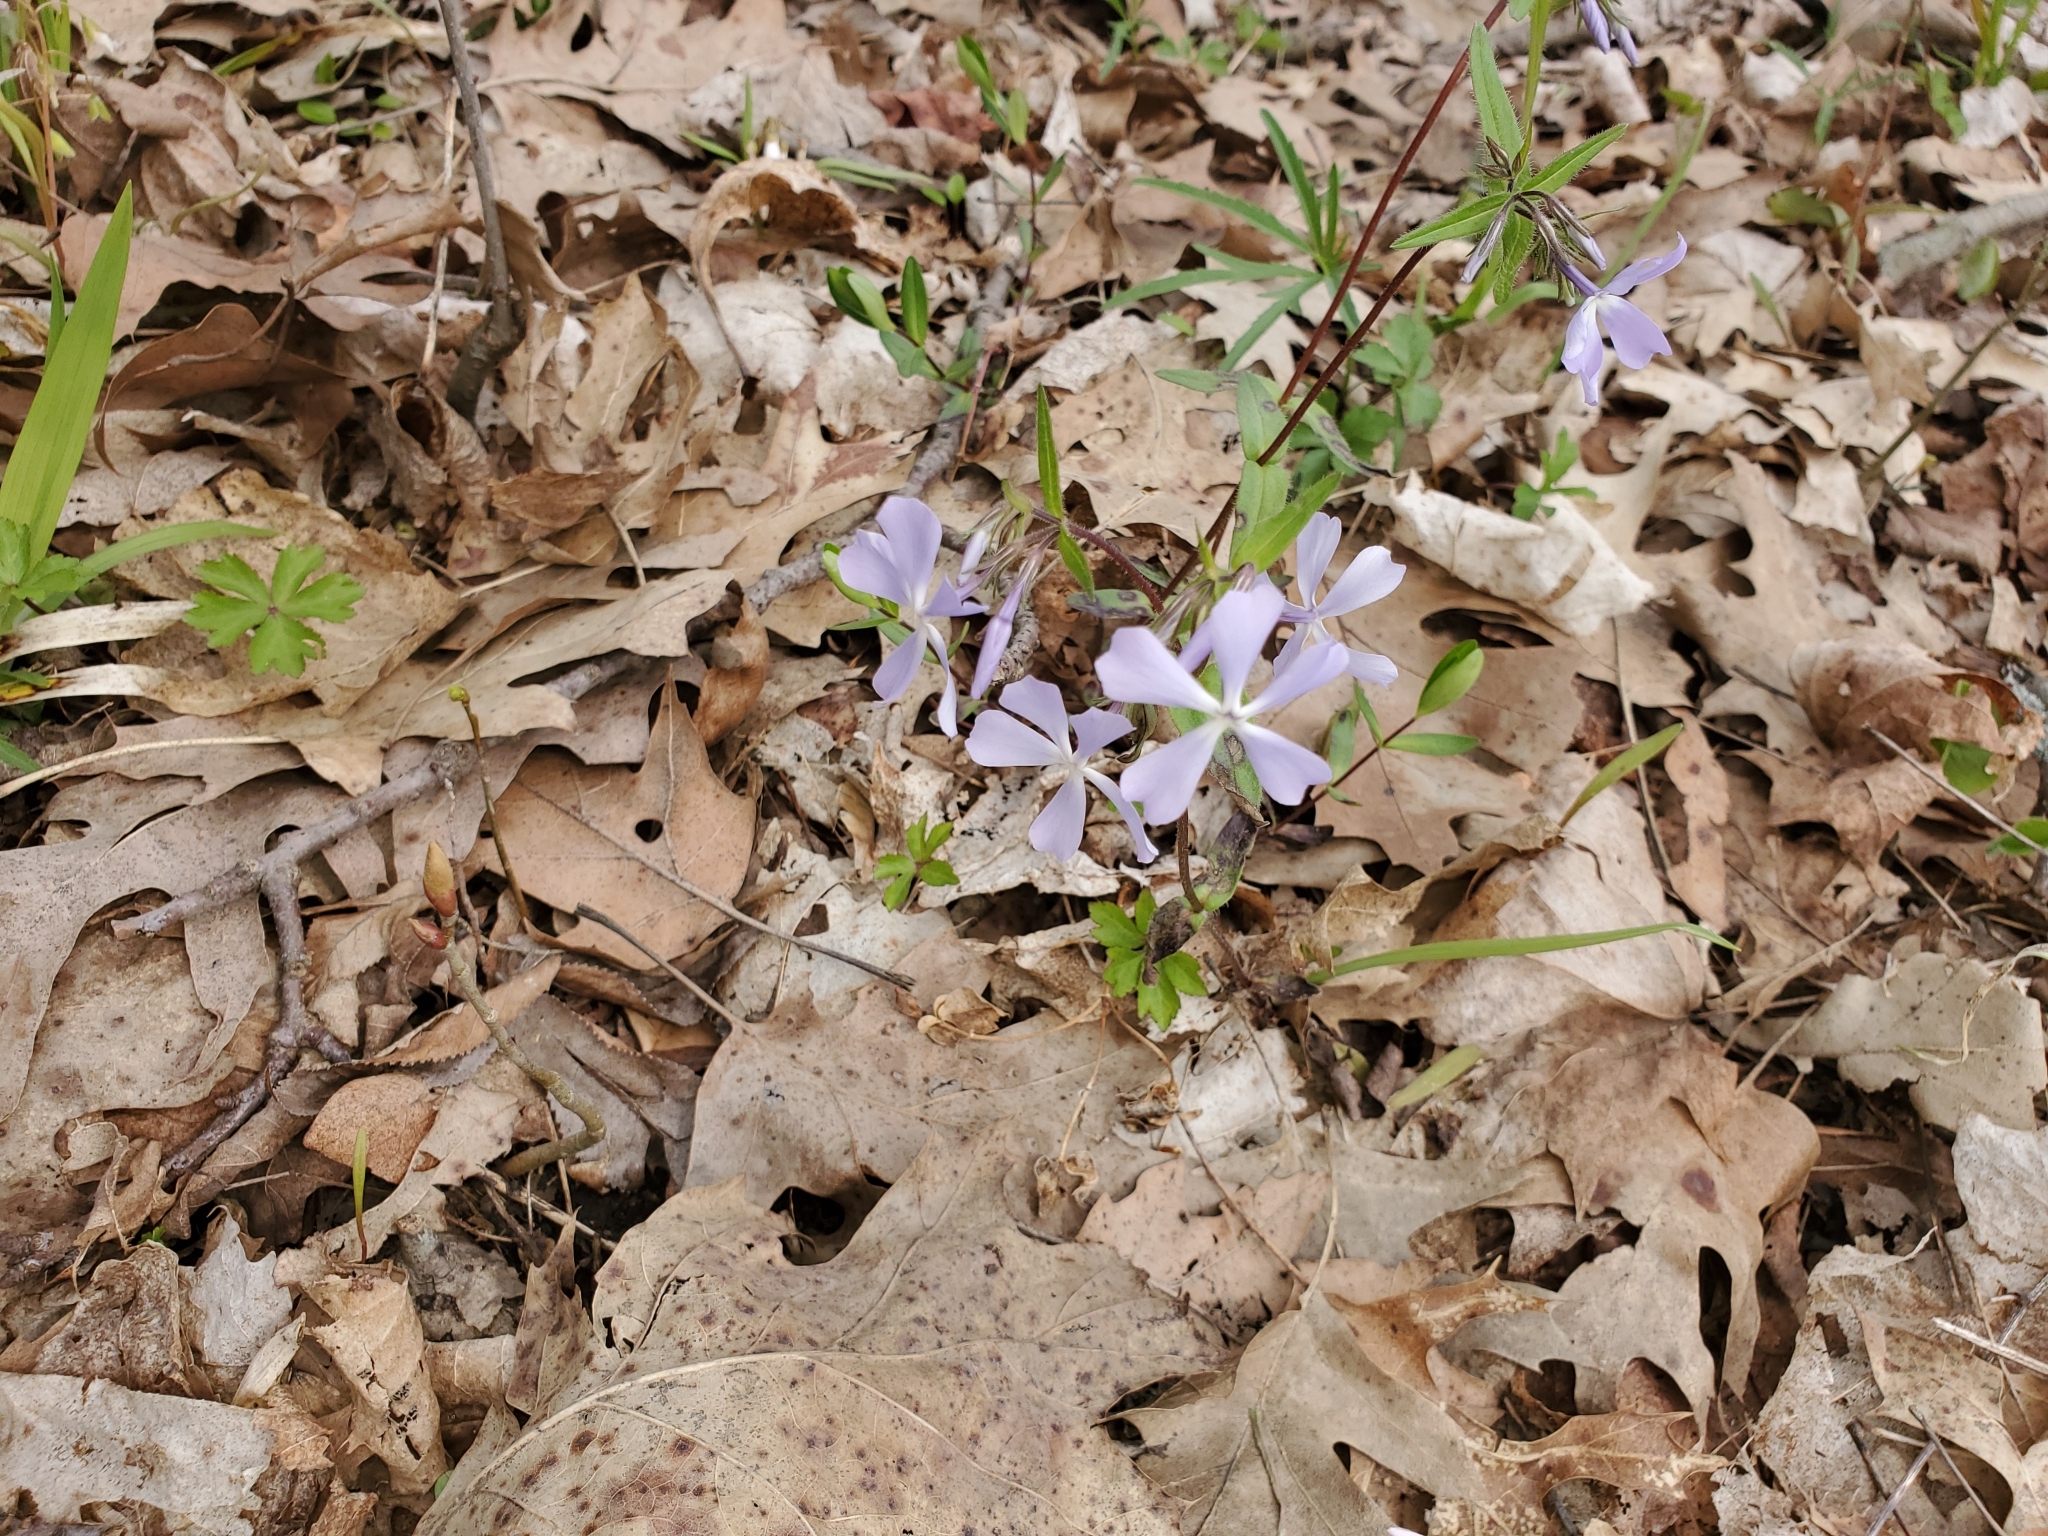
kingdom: Plantae
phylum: Tracheophyta
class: Magnoliopsida
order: Ericales
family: Polemoniaceae
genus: Phlox
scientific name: Phlox divaricata
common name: Blue phlox
